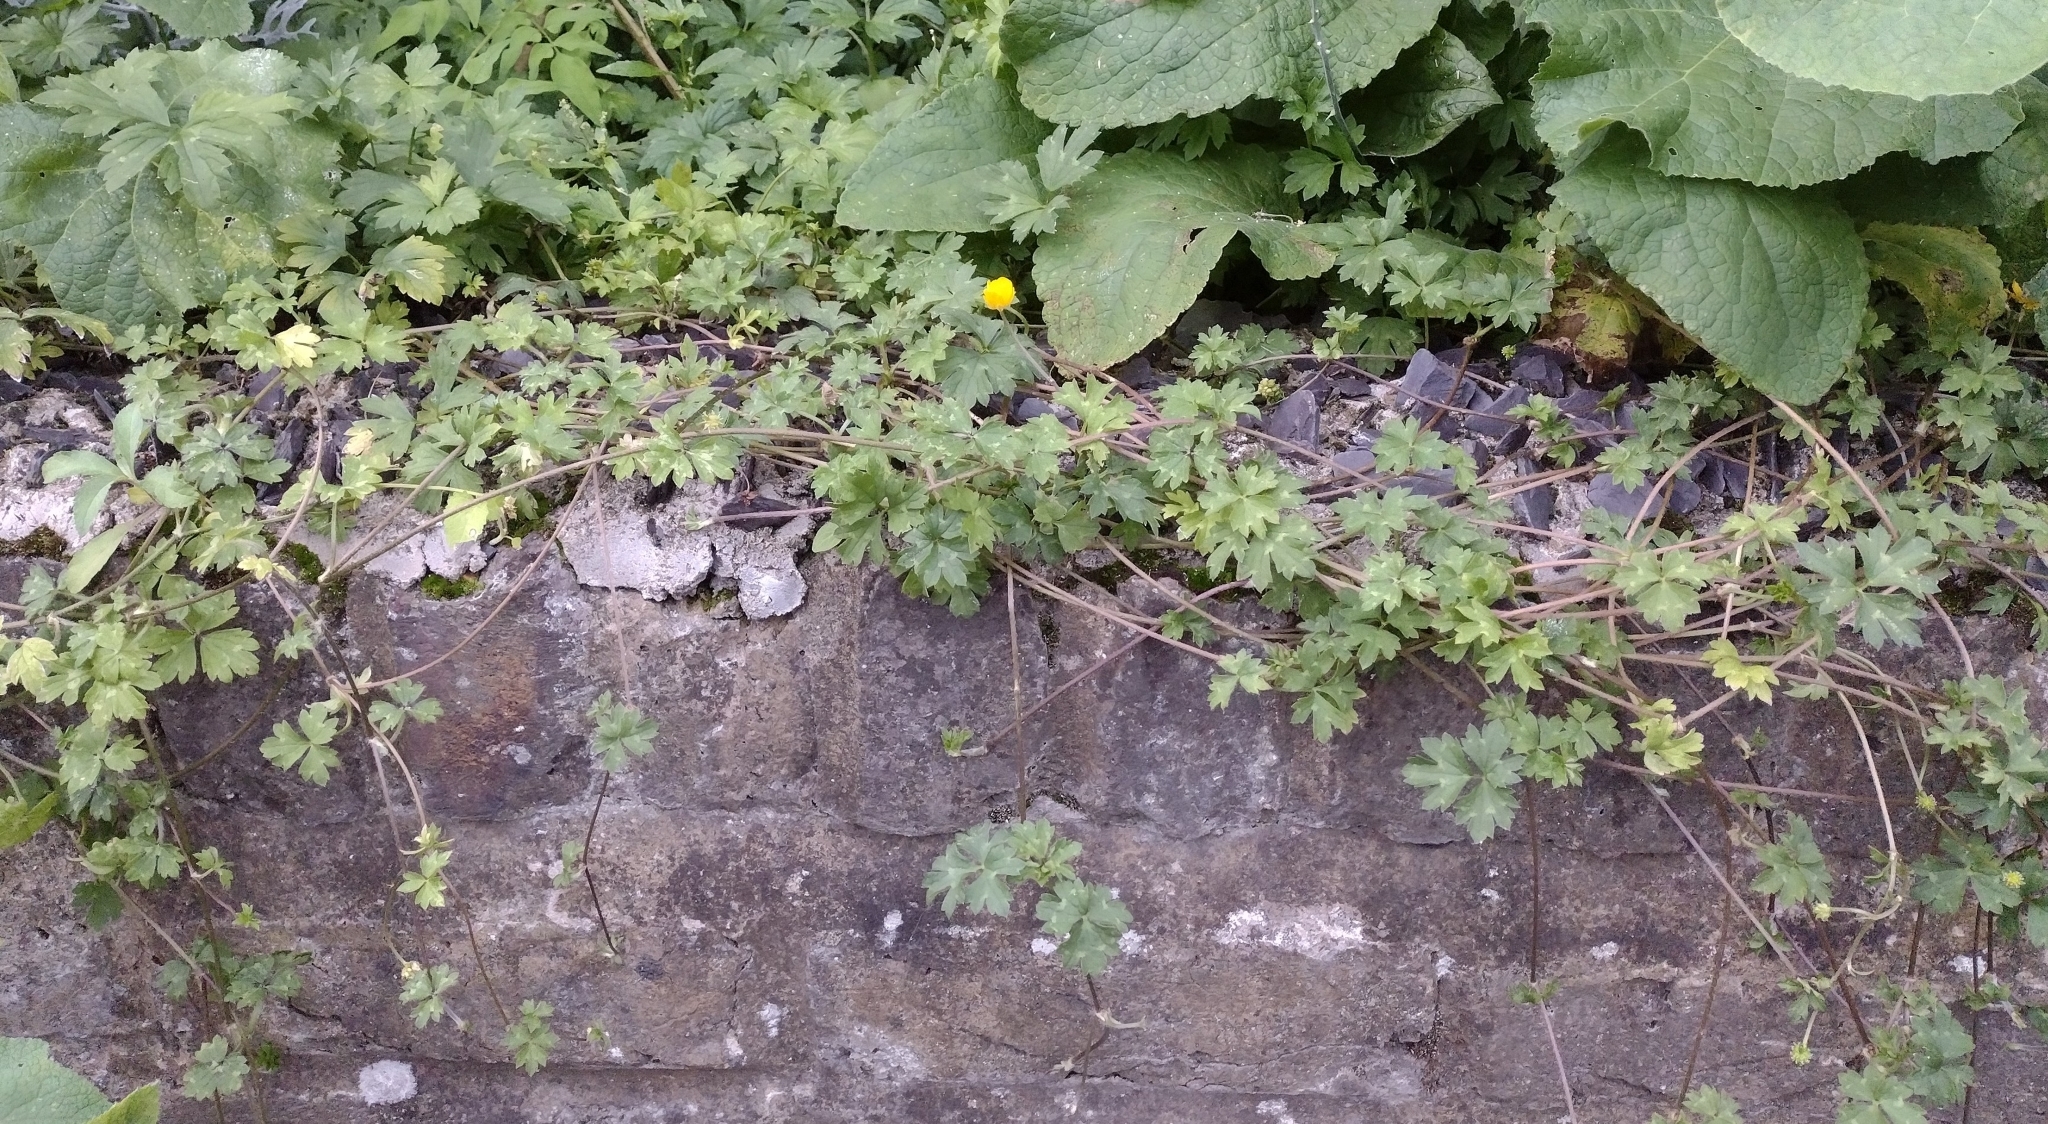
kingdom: Plantae
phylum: Tracheophyta
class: Magnoliopsida
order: Ranunculales
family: Ranunculaceae
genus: Ranunculus
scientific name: Ranunculus repens
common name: Creeping buttercup
